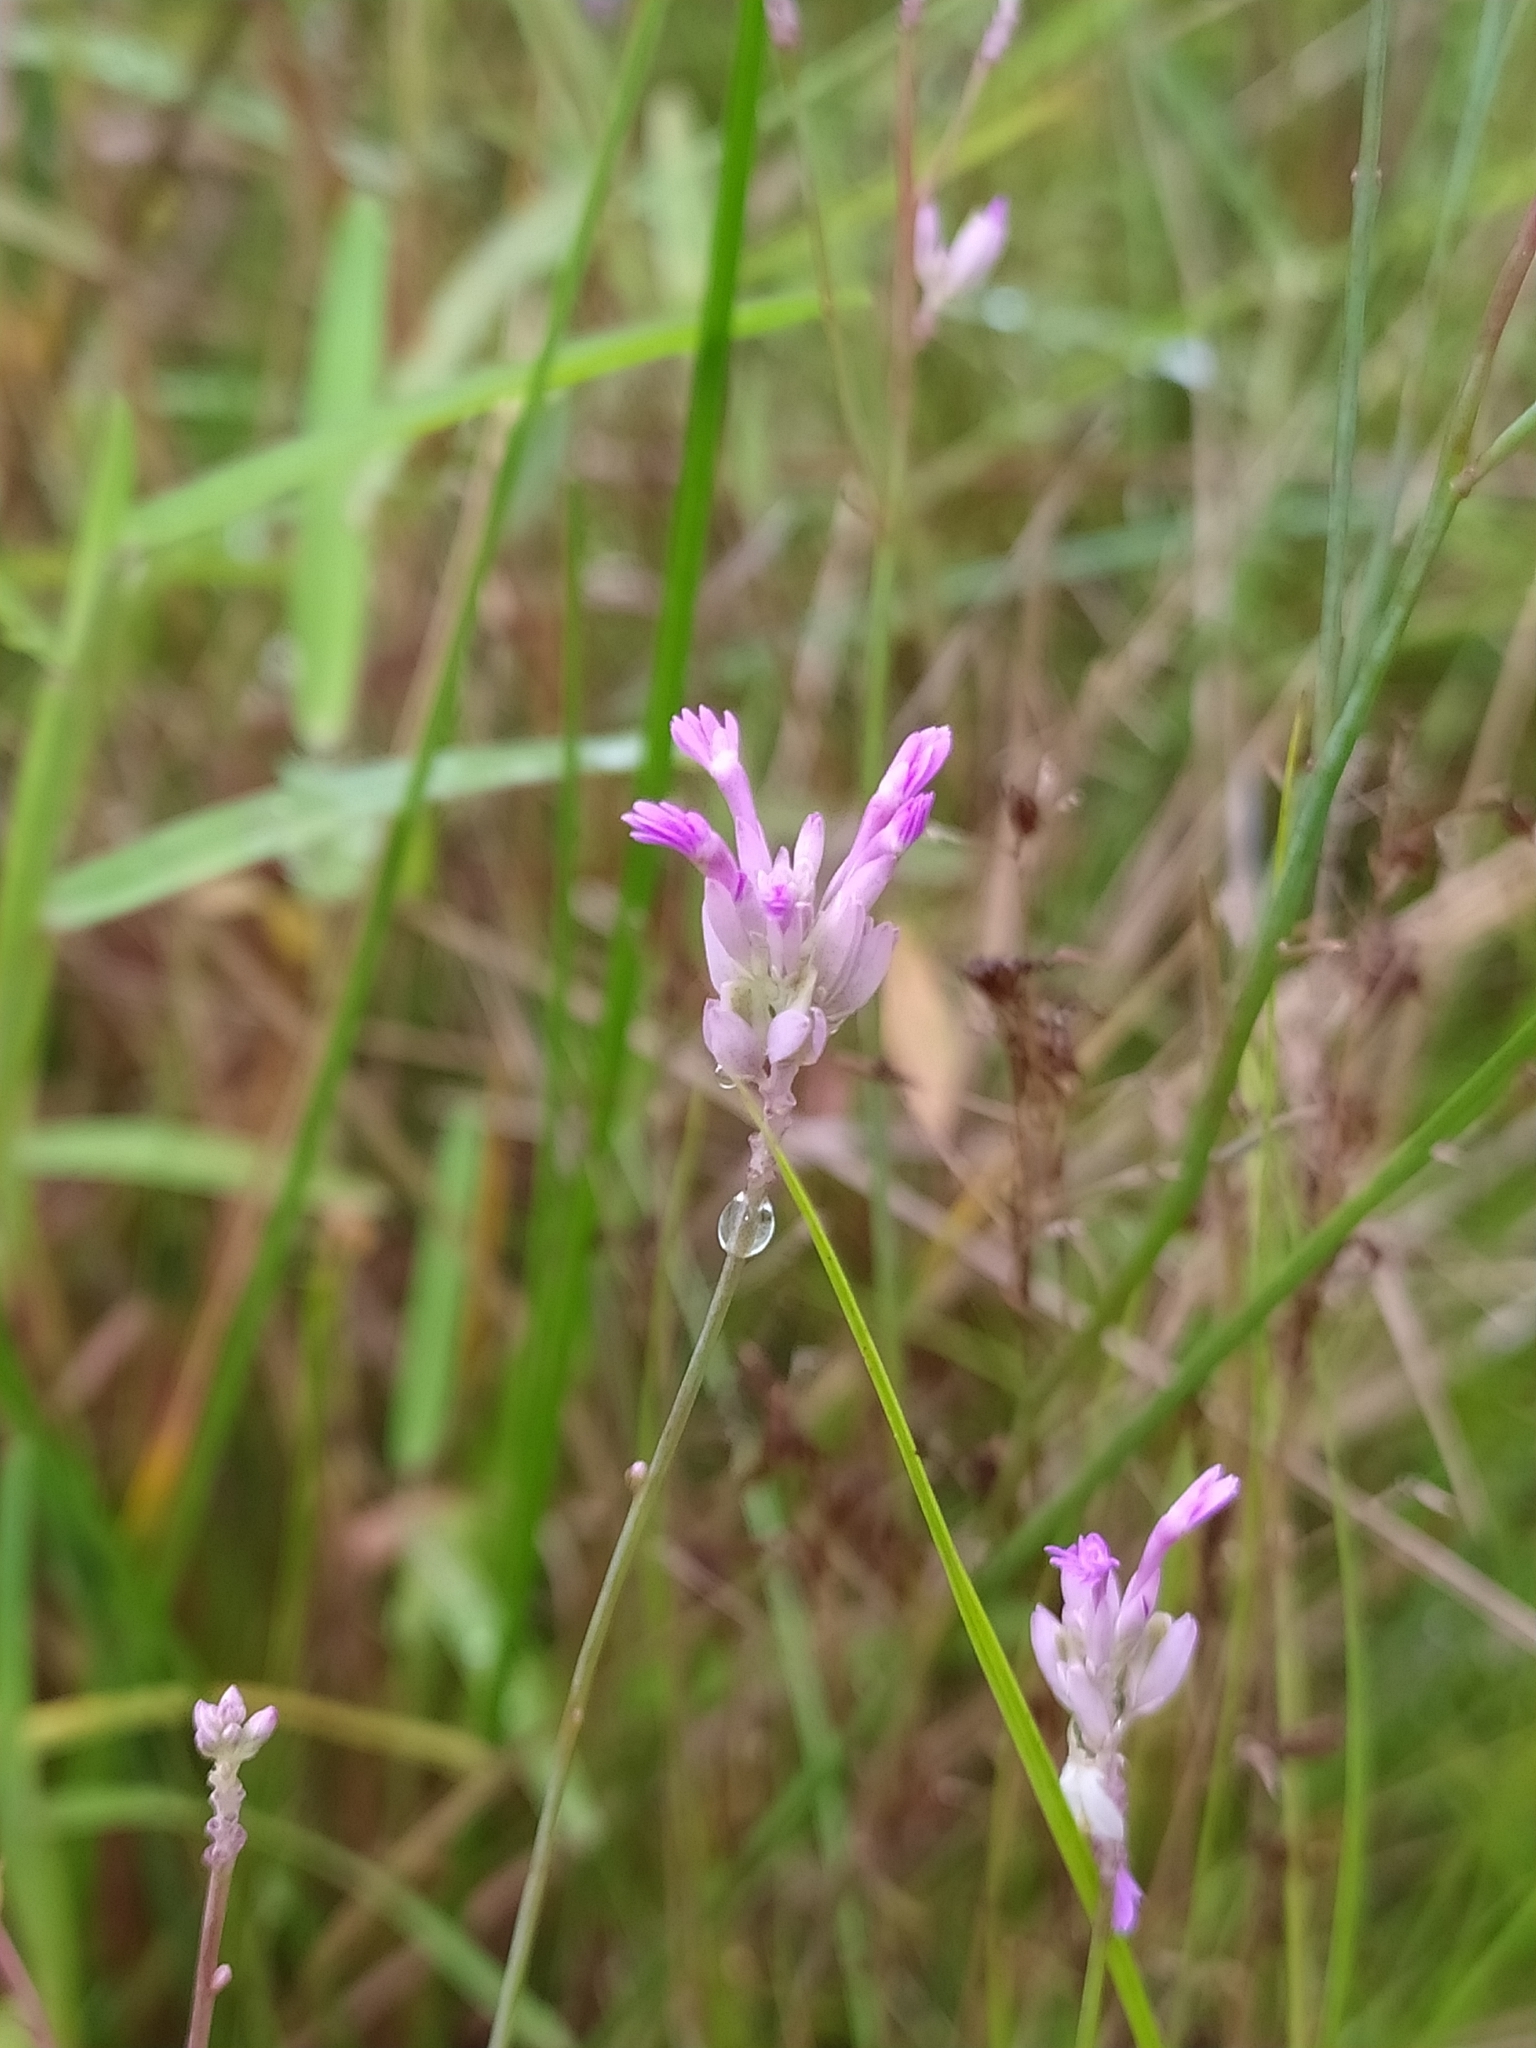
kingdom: Plantae
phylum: Tracheophyta
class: Magnoliopsida
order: Fabales
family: Polygalaceae
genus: Polygala
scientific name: Polygala adenophora
